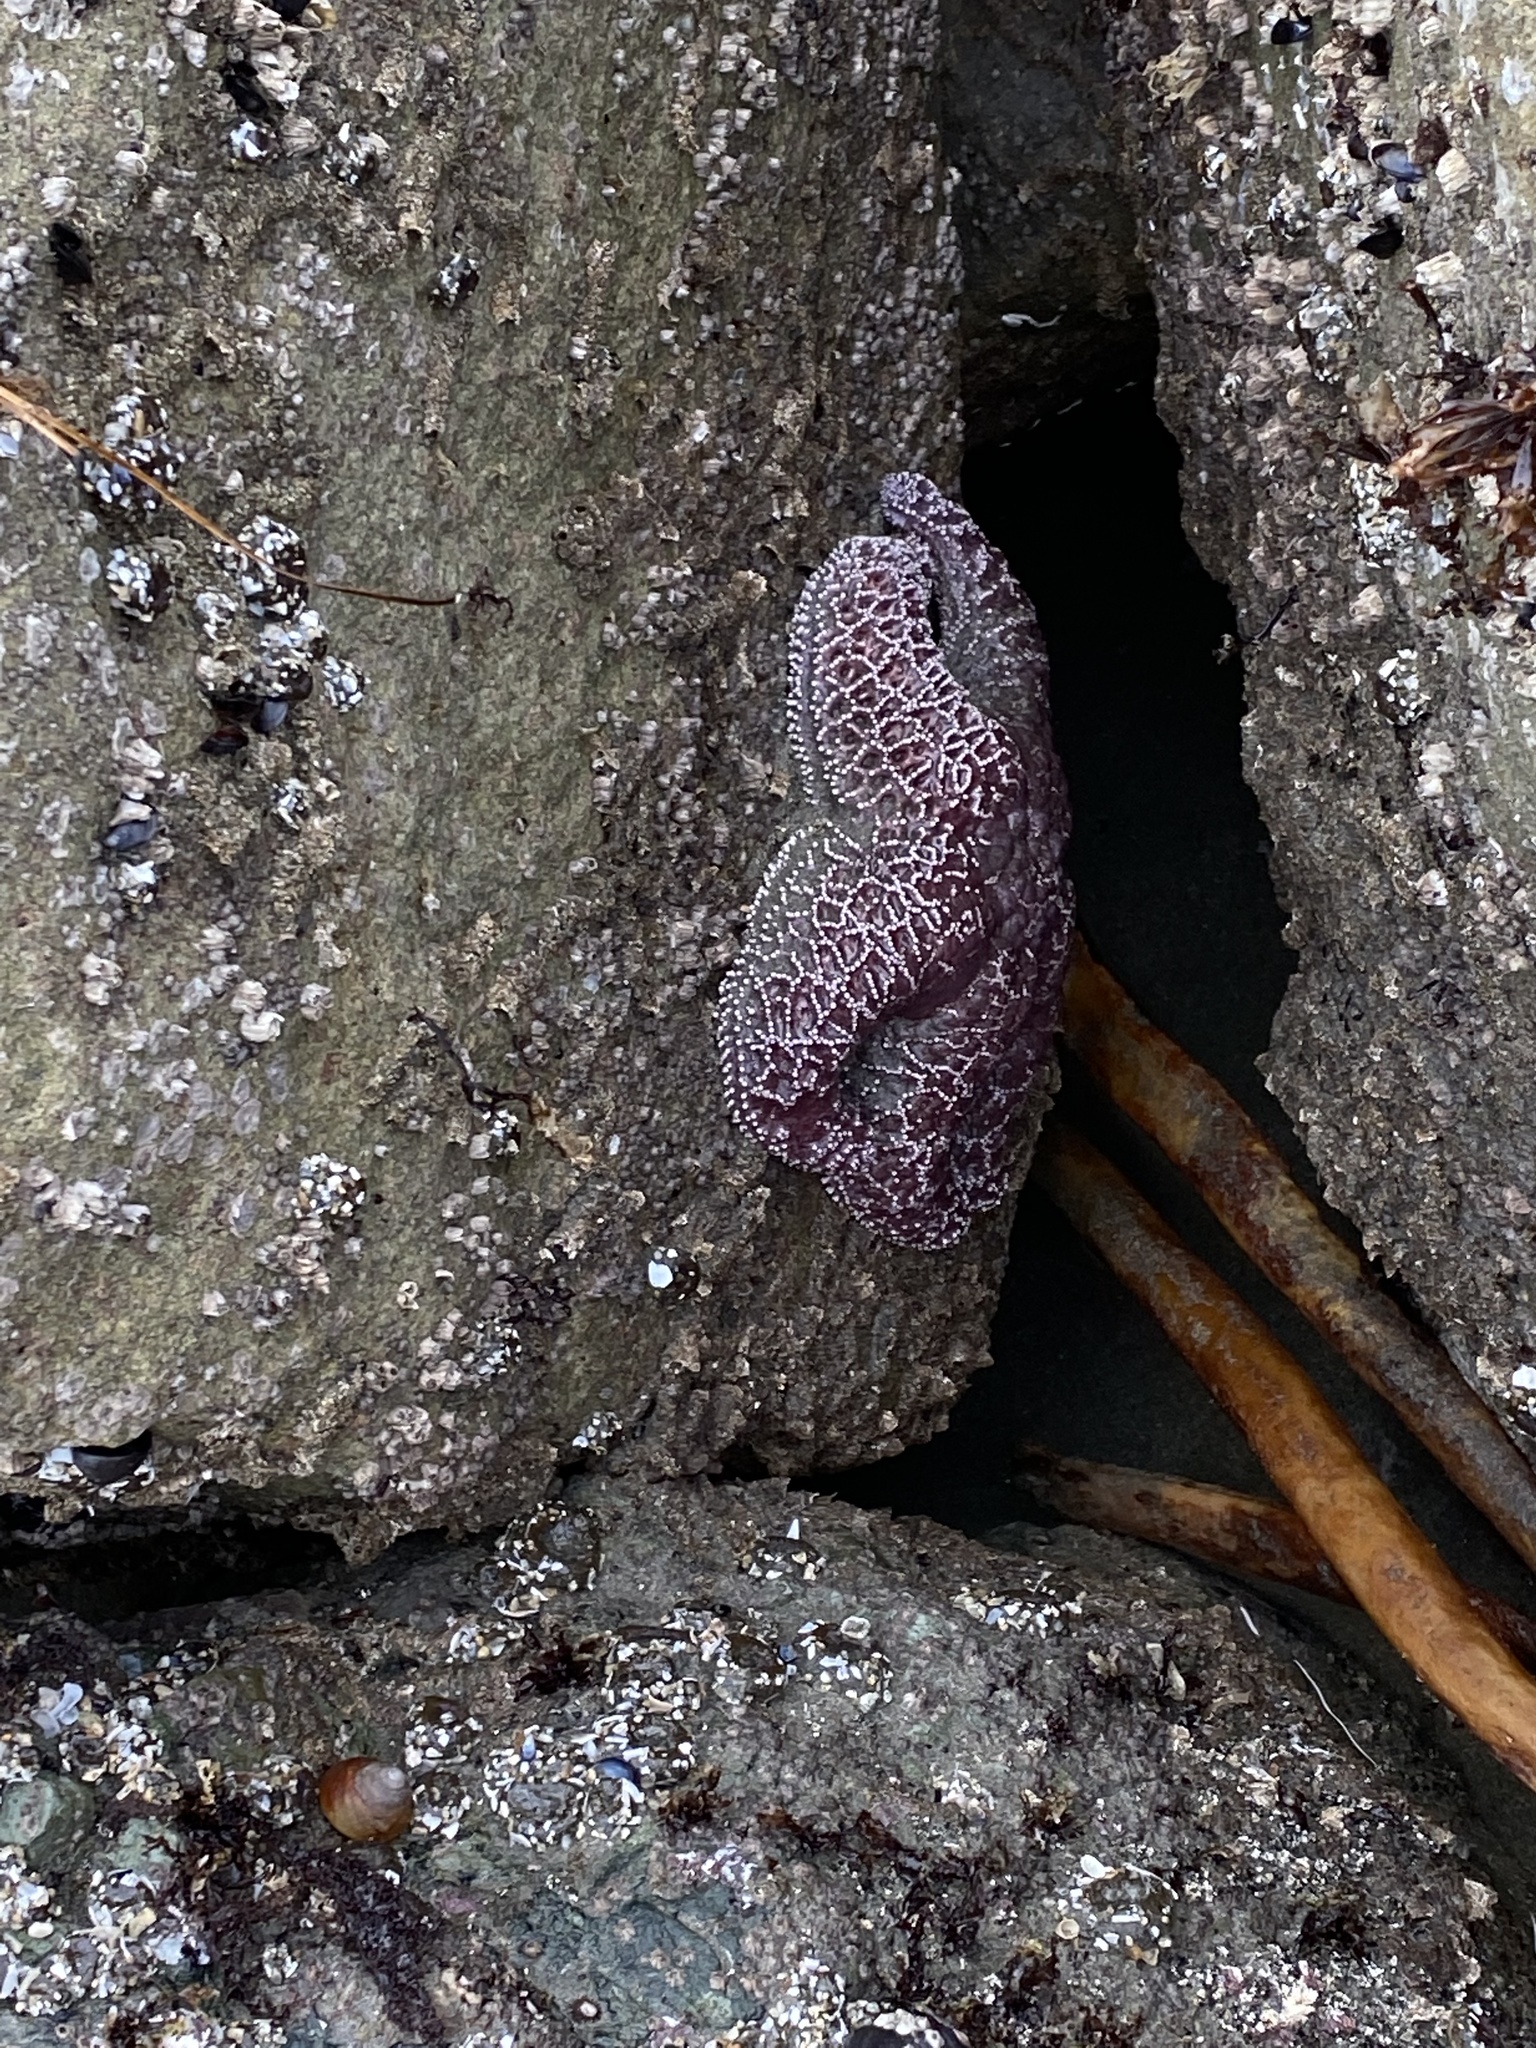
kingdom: Animalia
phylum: Echinodermata
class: Asteroidea
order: Forcipulatida
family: Asteriidae
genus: Pisaster
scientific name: Pisaster ochraceus
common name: Ochre stars
